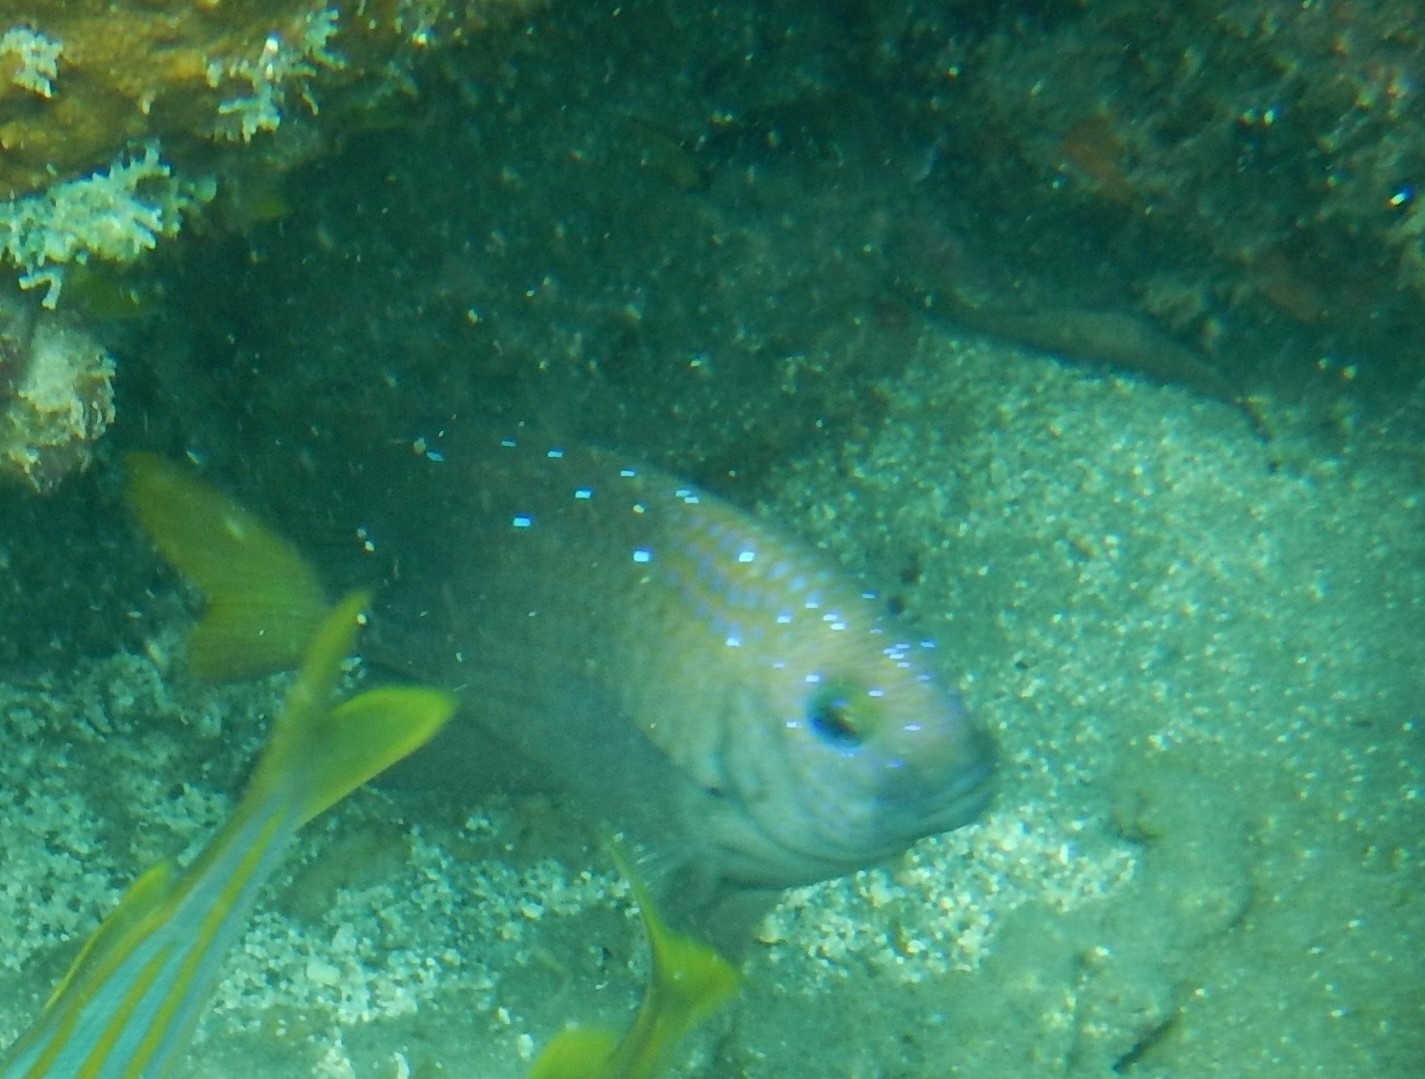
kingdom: Animalia
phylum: Chordata
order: Perciformes
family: Pomacentridae
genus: Microspathodon
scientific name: Microspathodon chrysurus
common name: Yellowtail damselfish
